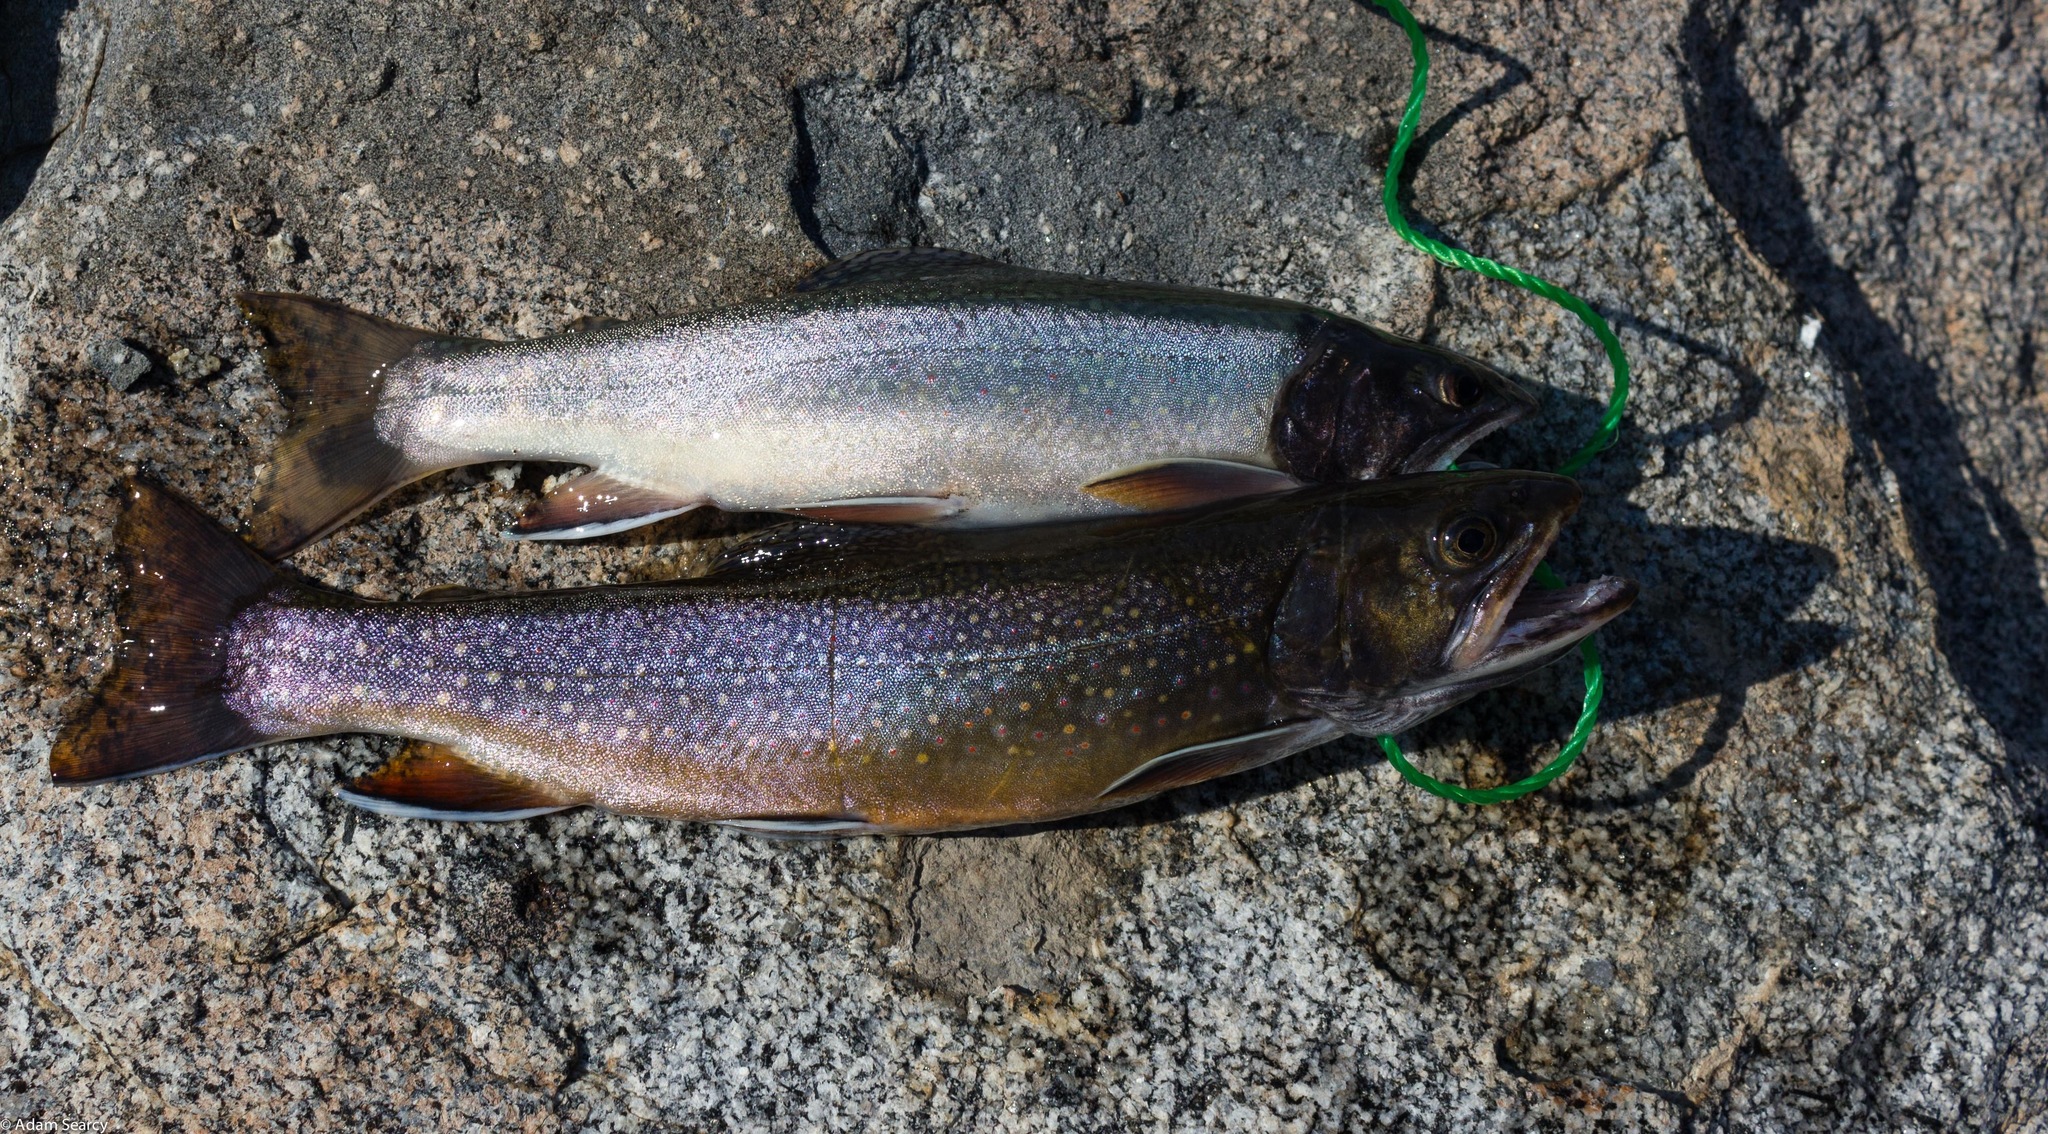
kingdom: Animalia
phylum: Chordata
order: Salmoniformes
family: Salmonidae
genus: Salvelinus
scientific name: Salvelinus fontinalis
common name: Brook trout
